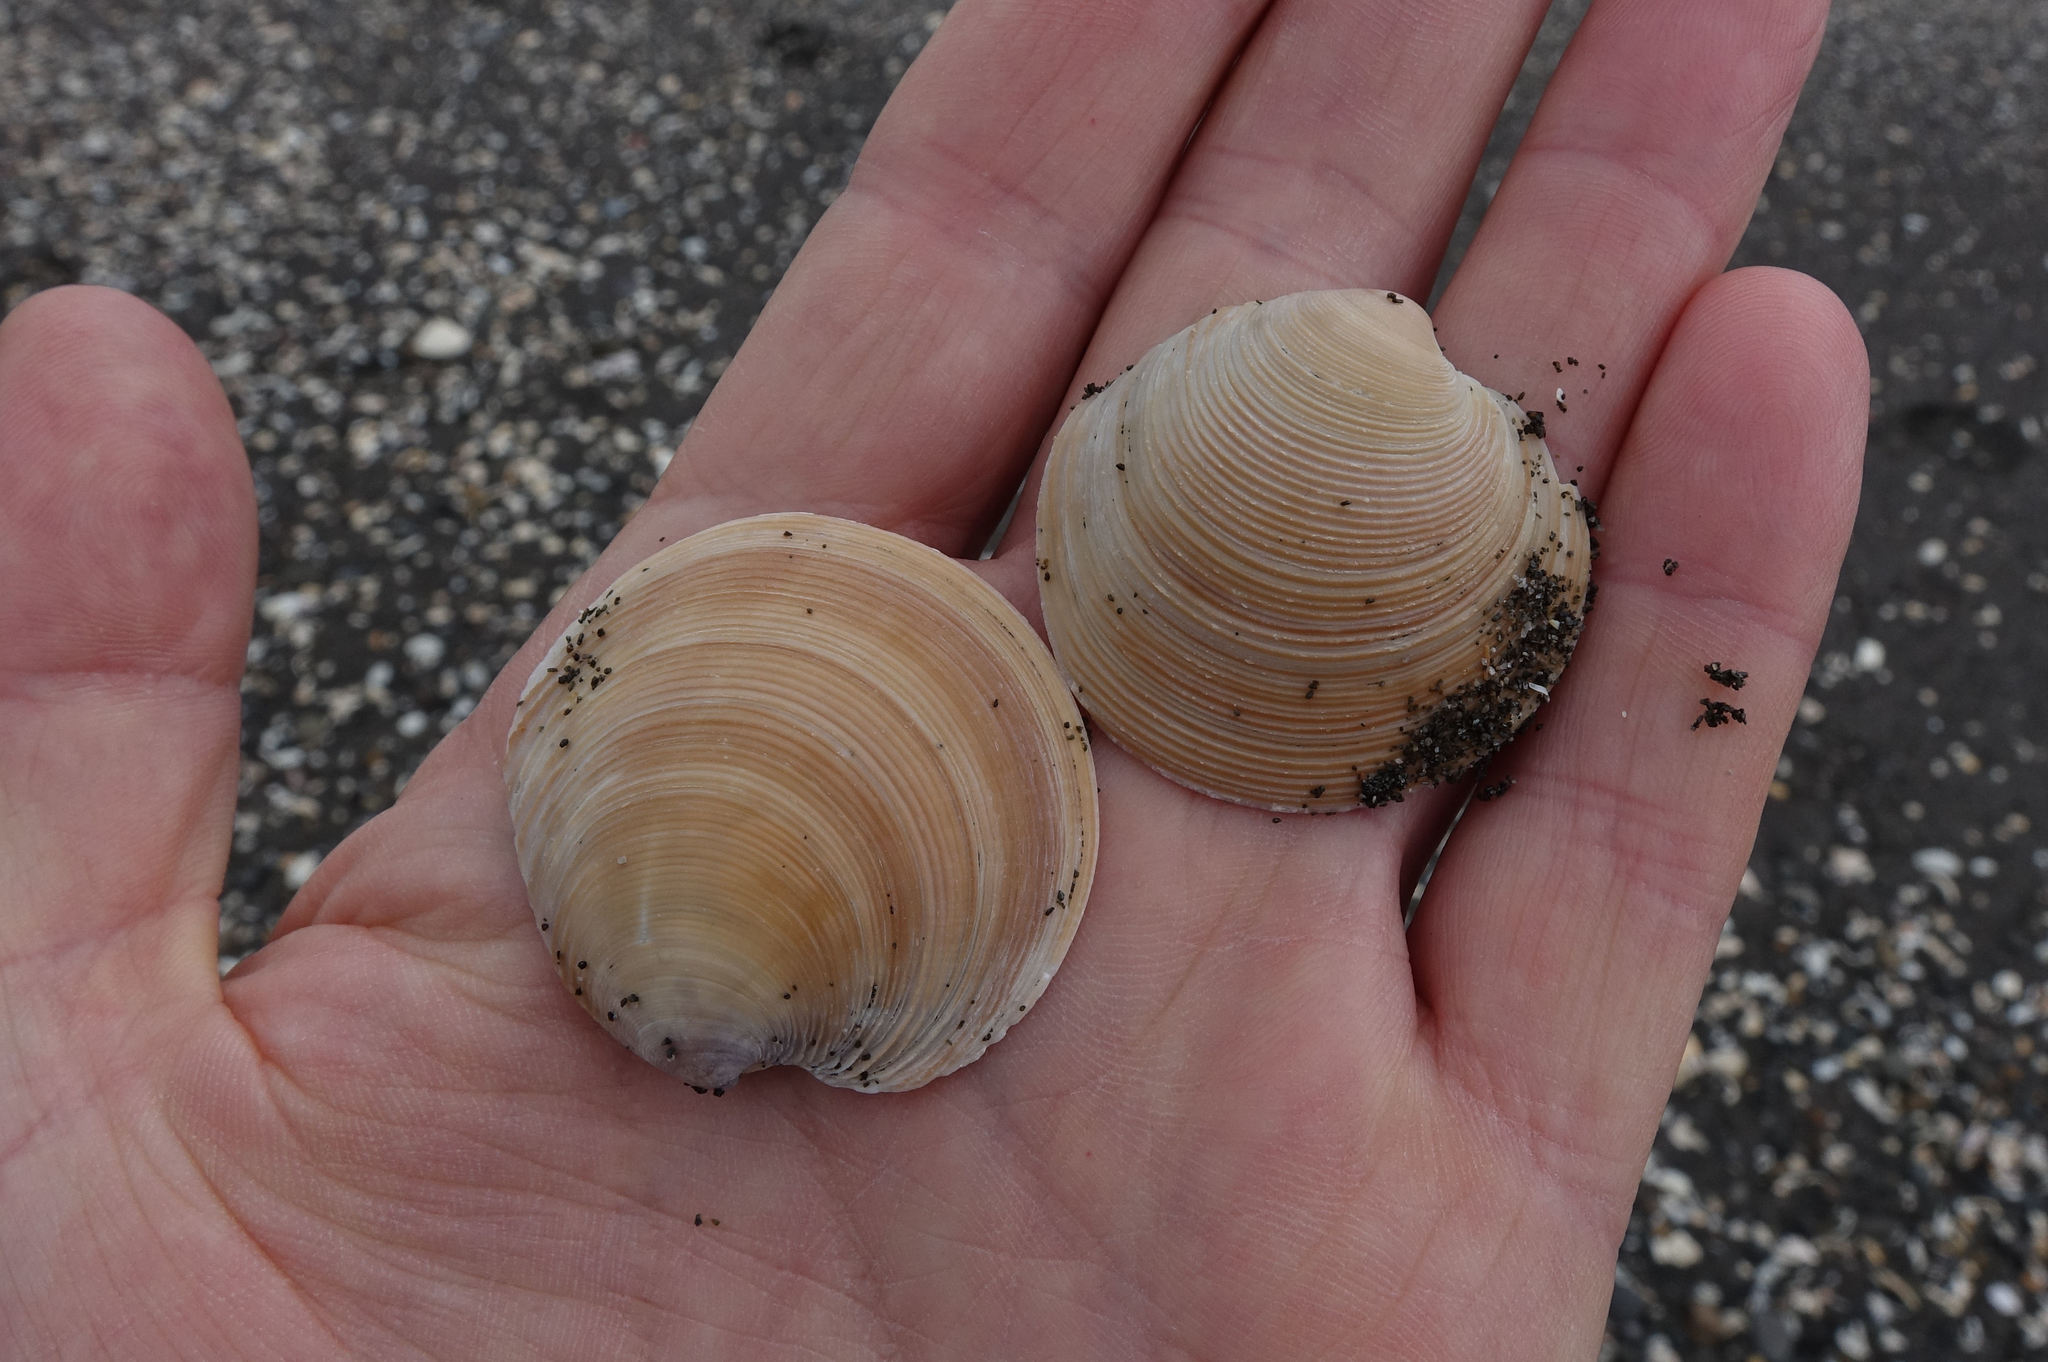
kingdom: Animalia
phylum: Mollusca
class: Bivalvia
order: Venerida
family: Veneridae
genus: Dosinia
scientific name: Dosinia anus
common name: Old-woman dosinia
